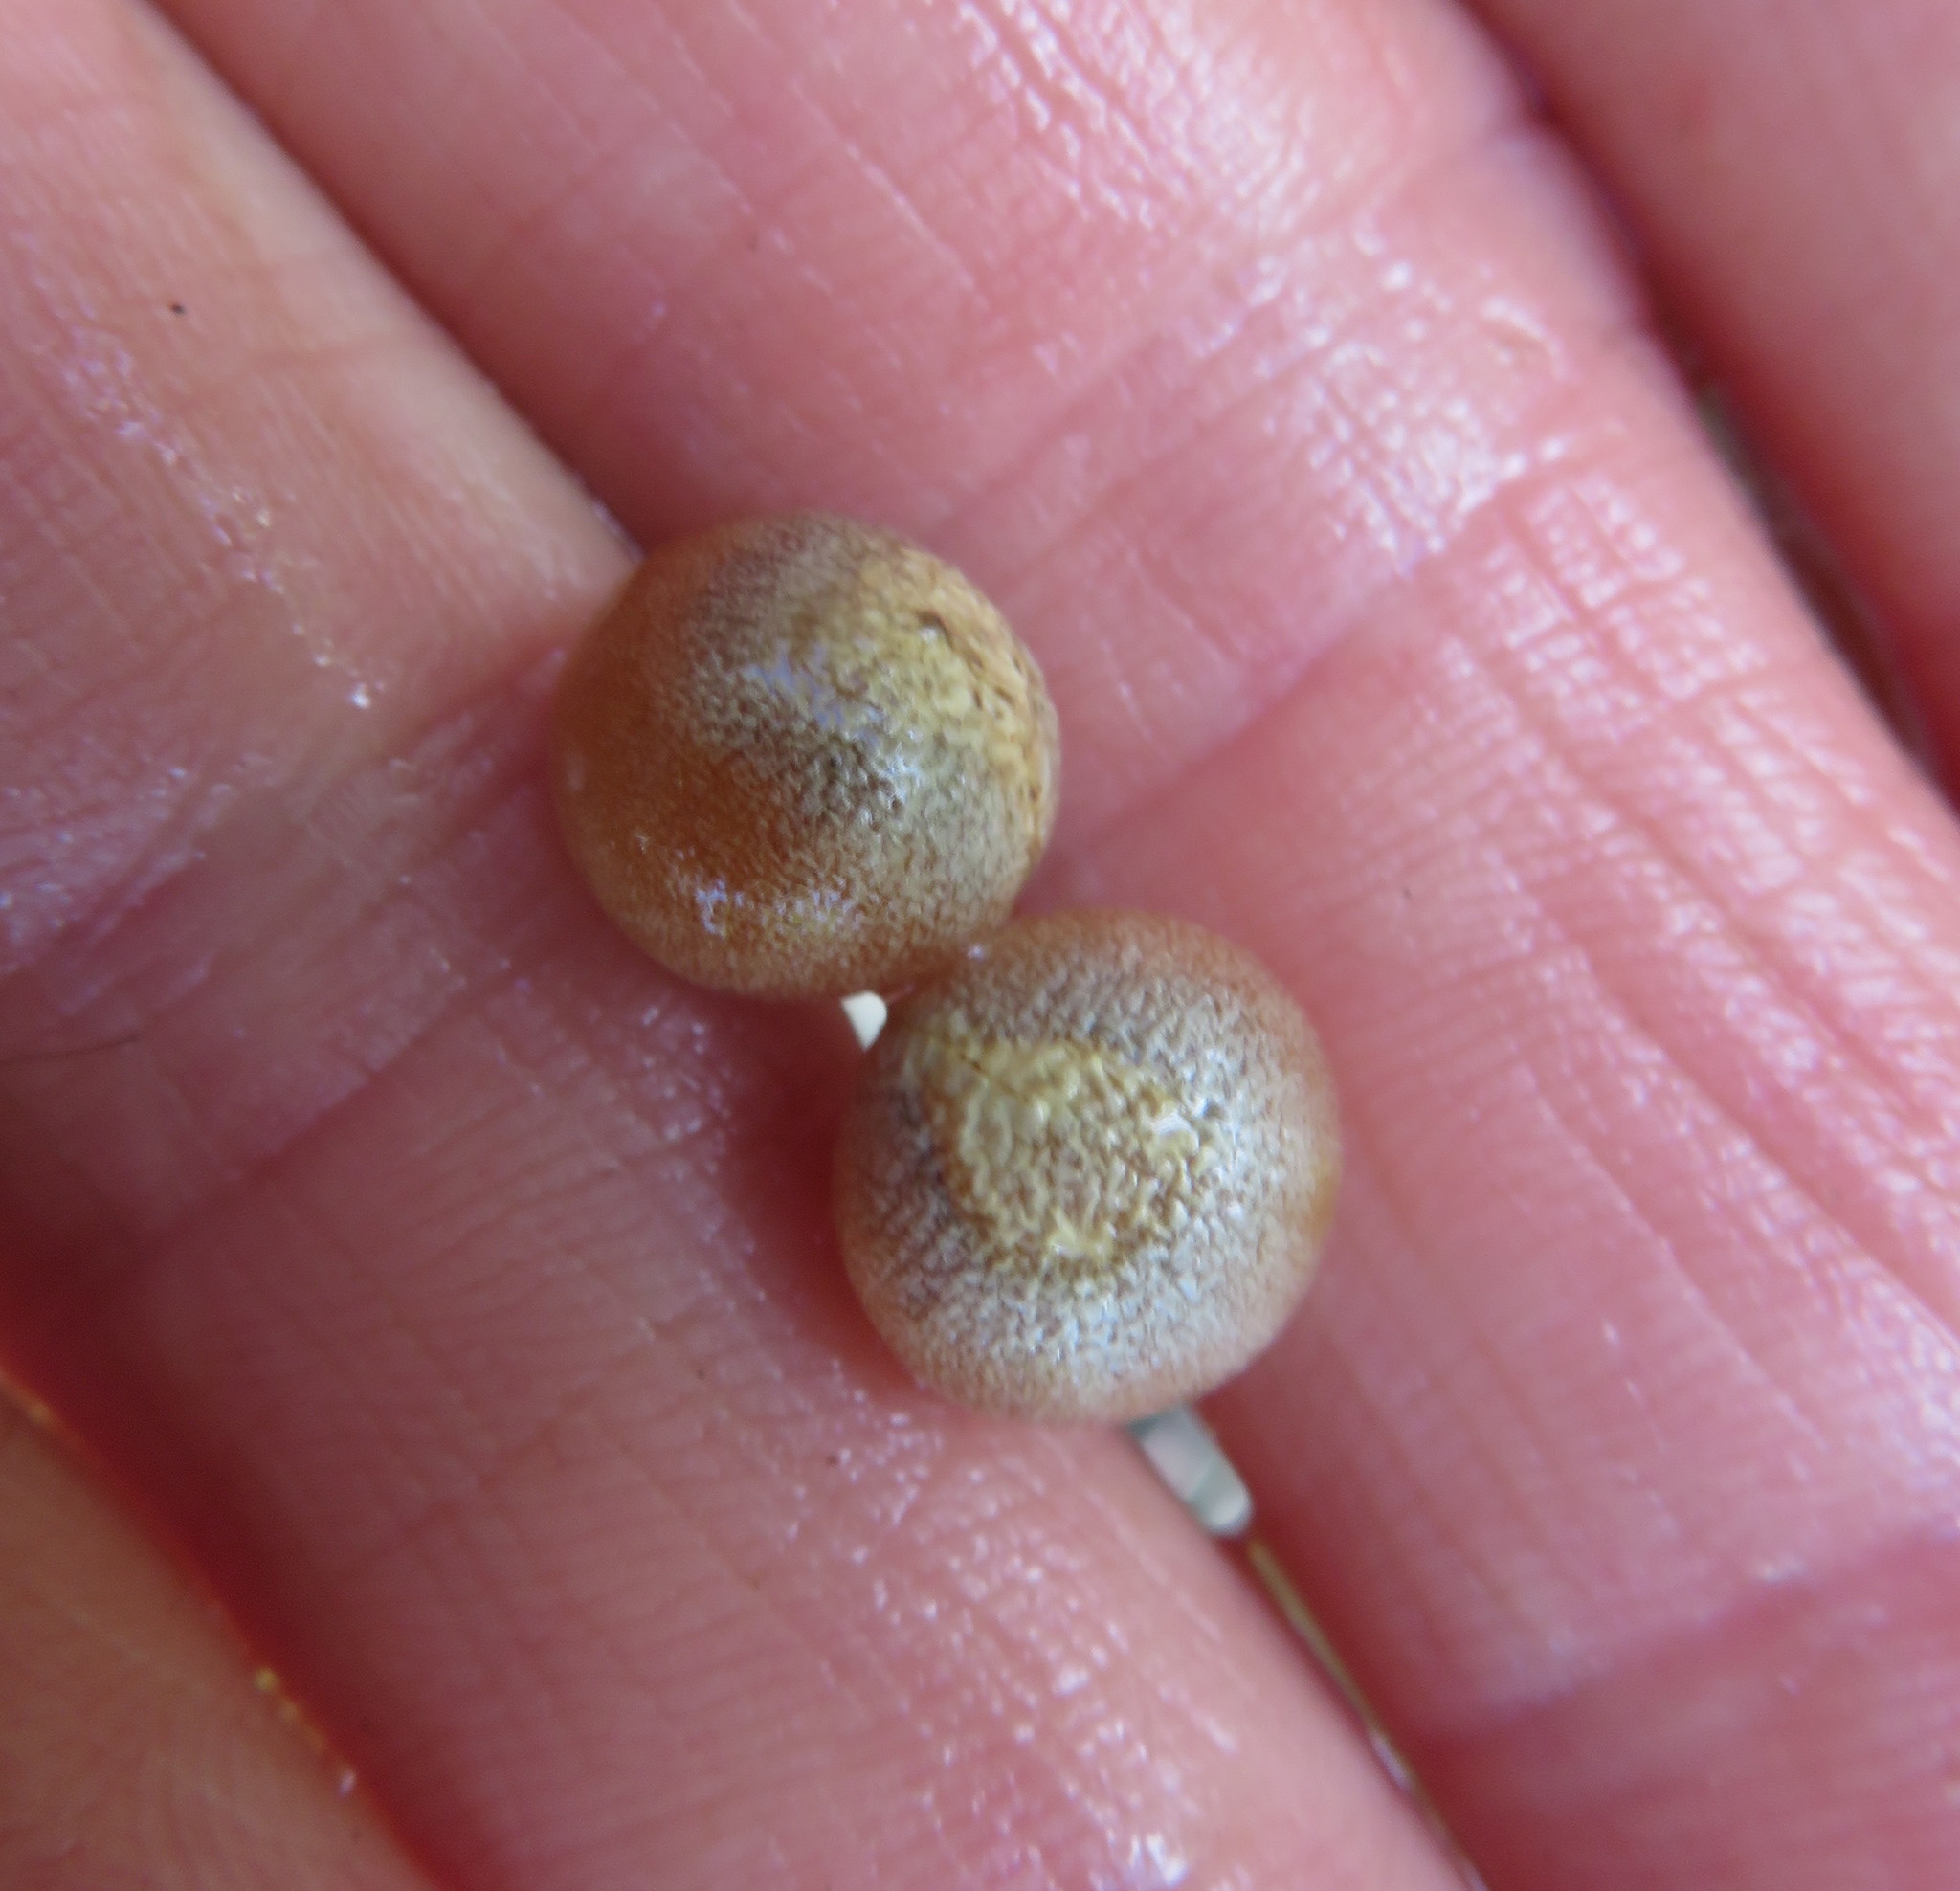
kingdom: Plantae
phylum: Tracheophyta
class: Liliopsida
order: Asparagales
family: Asparagaceae
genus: Dracaena
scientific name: Dracaena draco
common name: Canary island dragon tree
